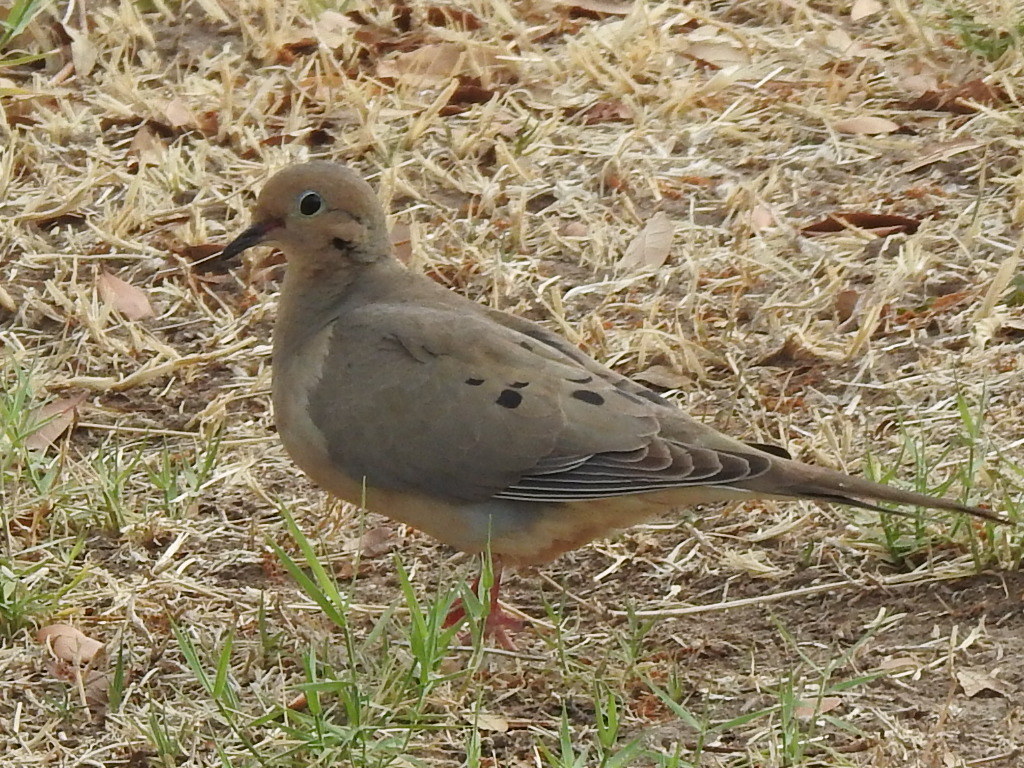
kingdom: Animalia
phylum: Chordata
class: Aves
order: Columbiformes
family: Columbidae
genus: Zenaida
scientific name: Zenaida macroura
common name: Mourning dove
